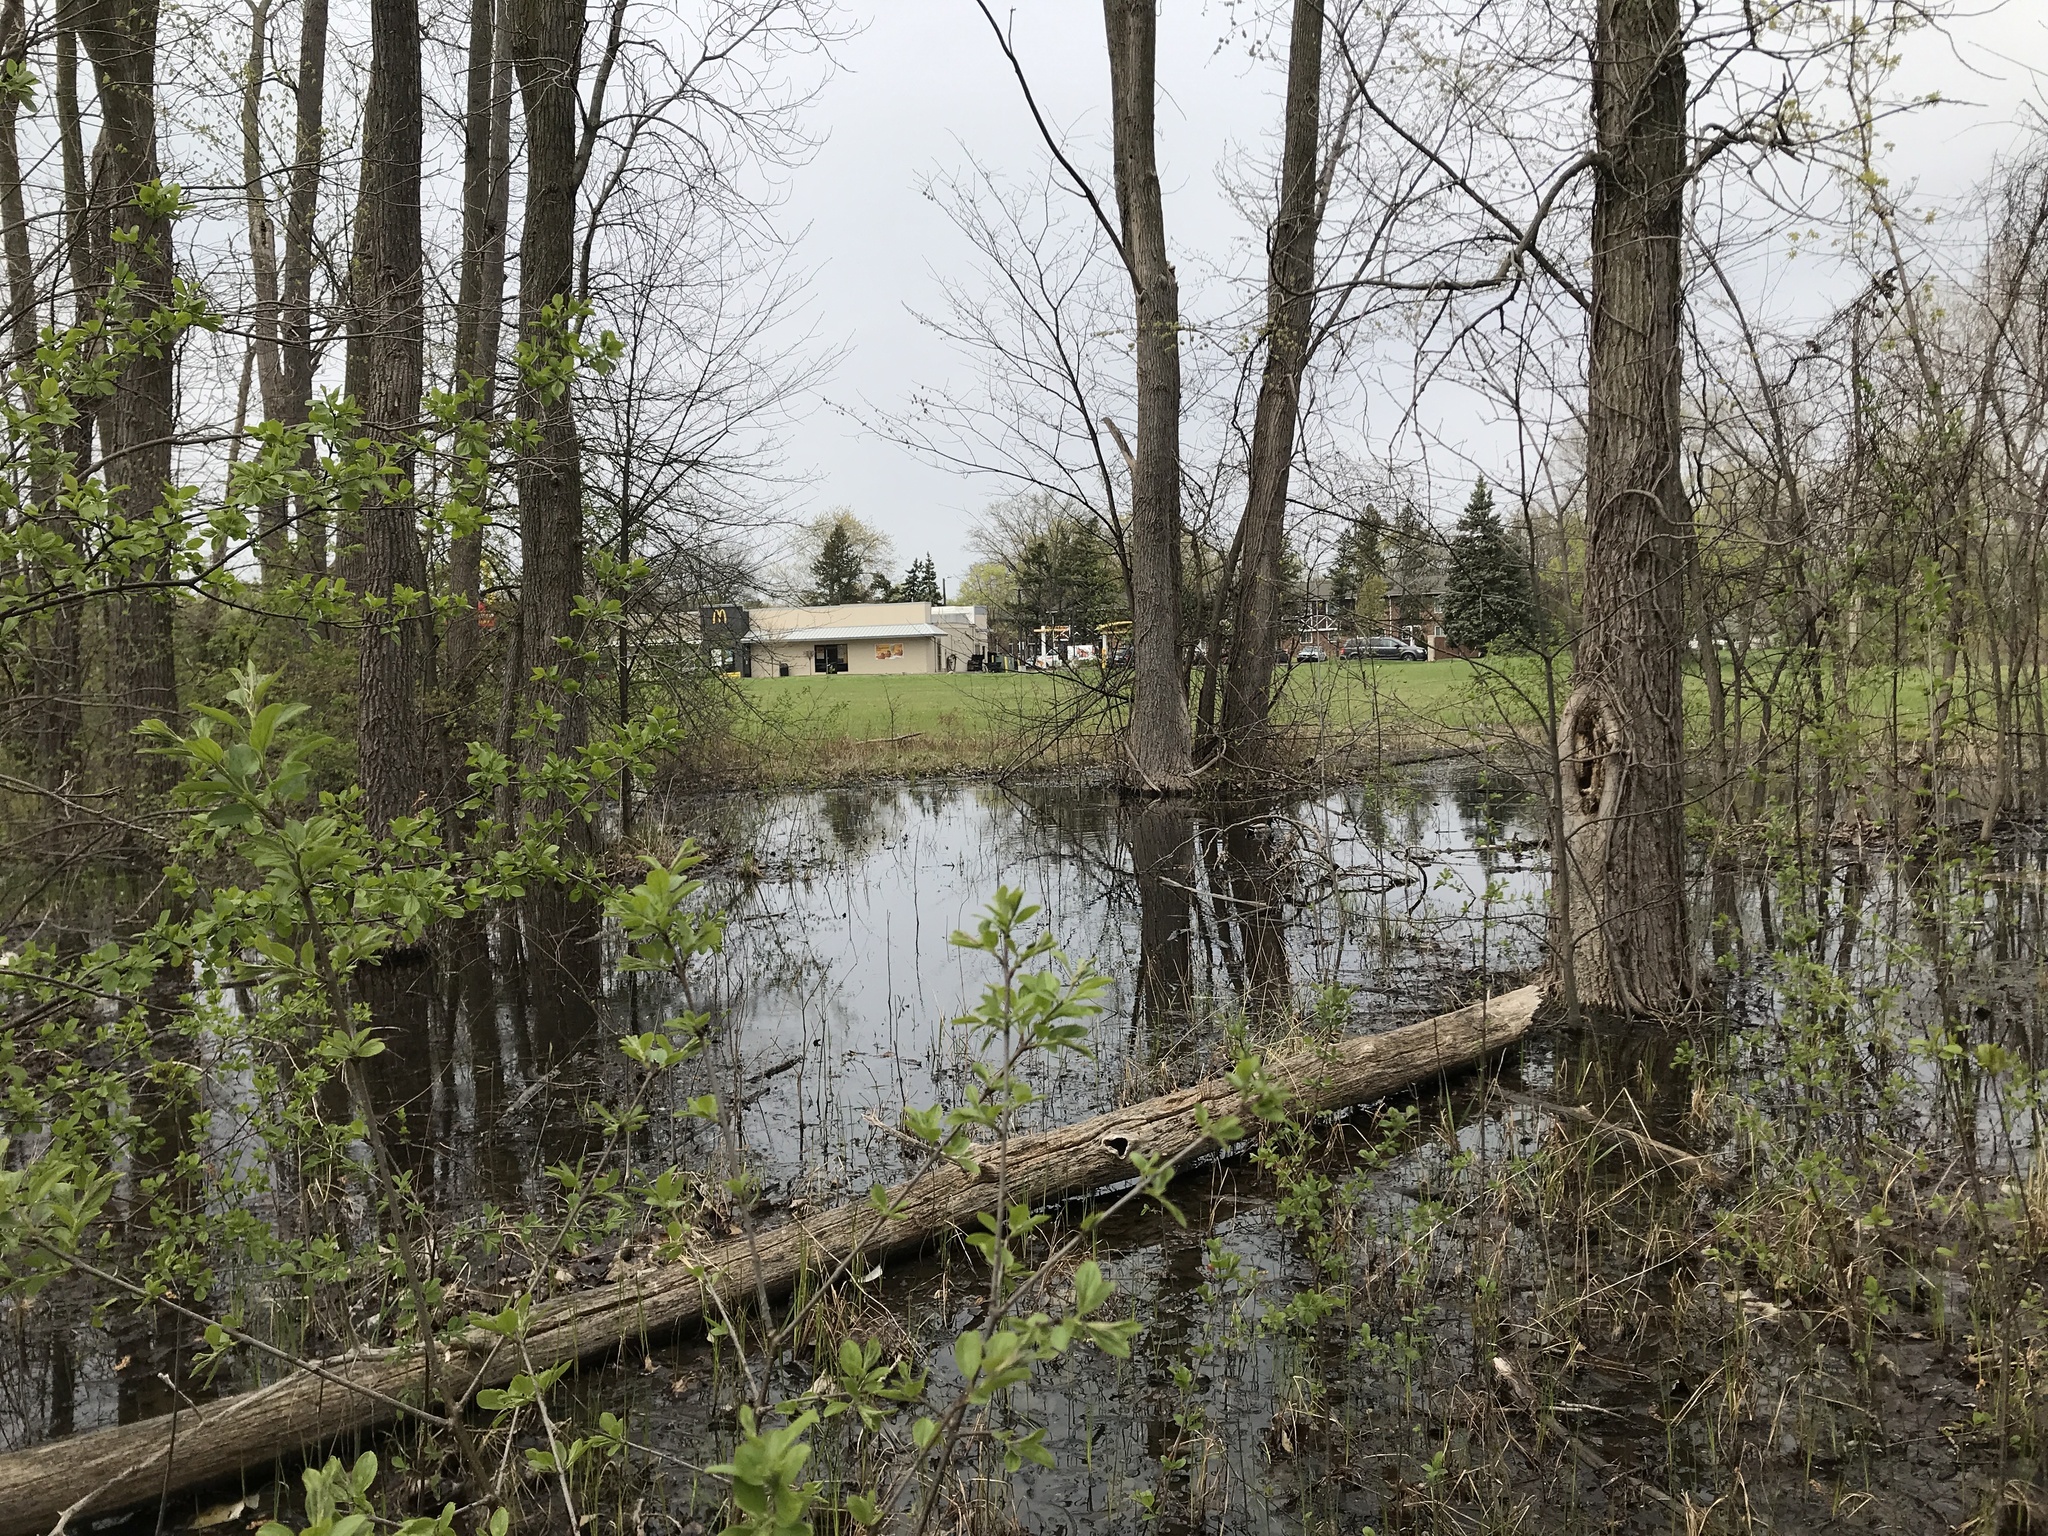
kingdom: Animalia
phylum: Chordata
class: Aves
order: Anseriformes
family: Anatidae
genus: Anas
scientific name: Anas platyrhynchos
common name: Mallard
